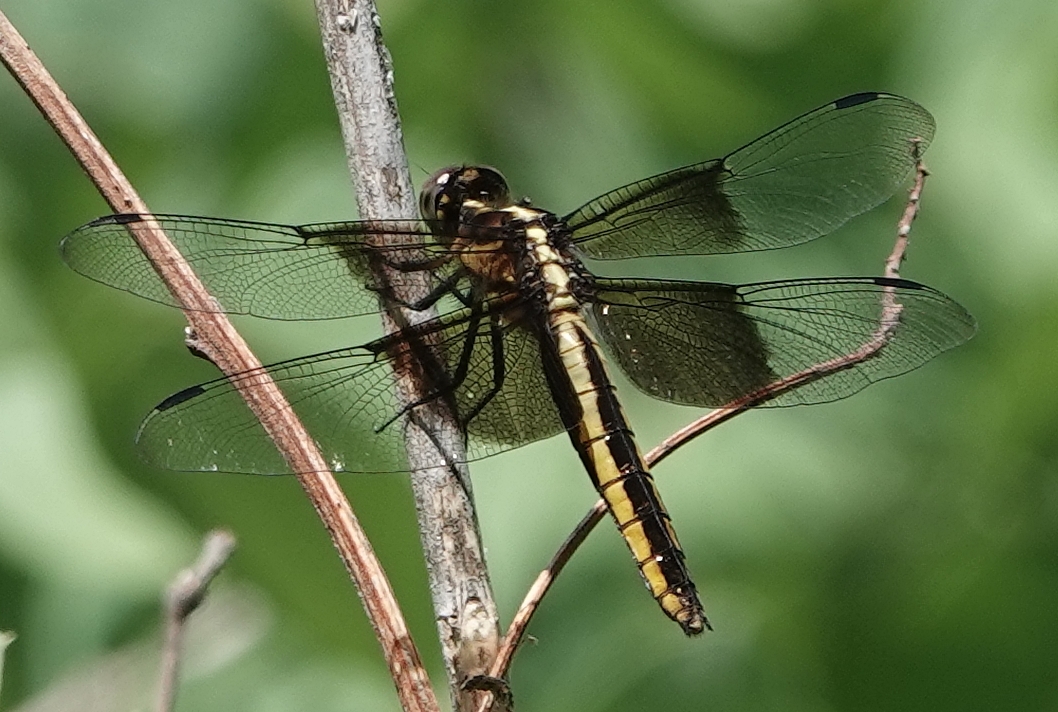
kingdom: Animalia
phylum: Arthropoda
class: Insecta
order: Odonata
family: Libellulidae
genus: Libellula
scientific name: Libellula luctuosa
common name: Widow skimmer
